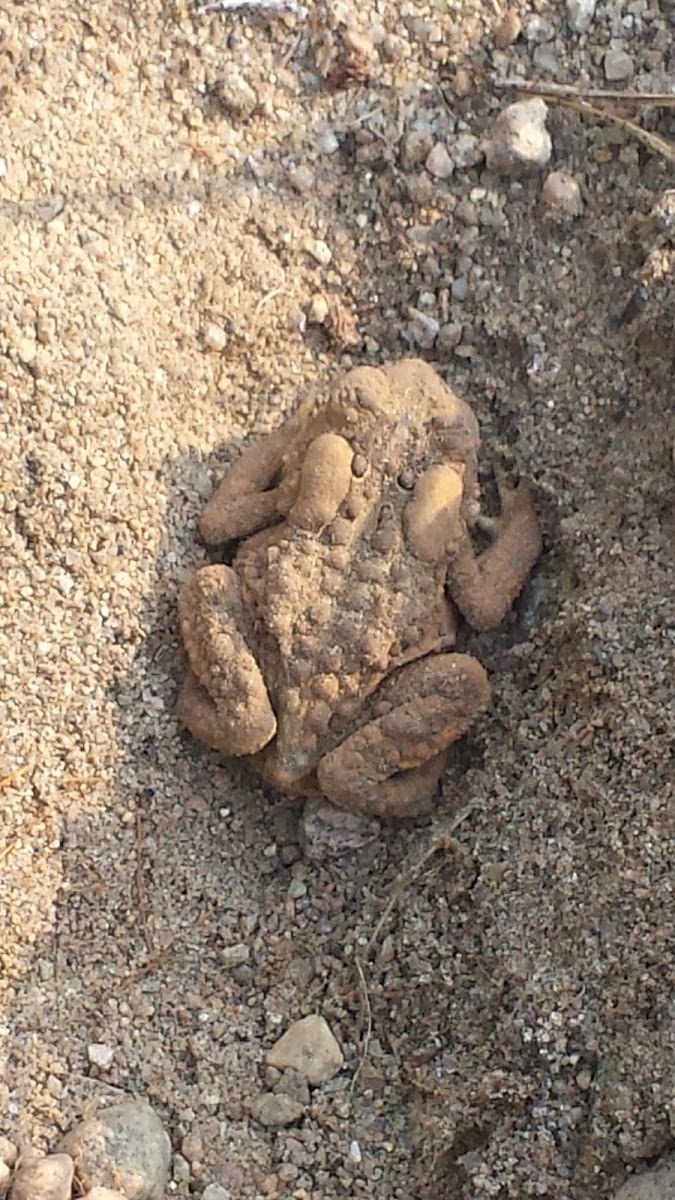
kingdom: Animalia
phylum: Chordata
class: Amphibia
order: Anura
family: Bufonidae
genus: Anaxyrus
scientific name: Anaxyrus americanus
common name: American toad
